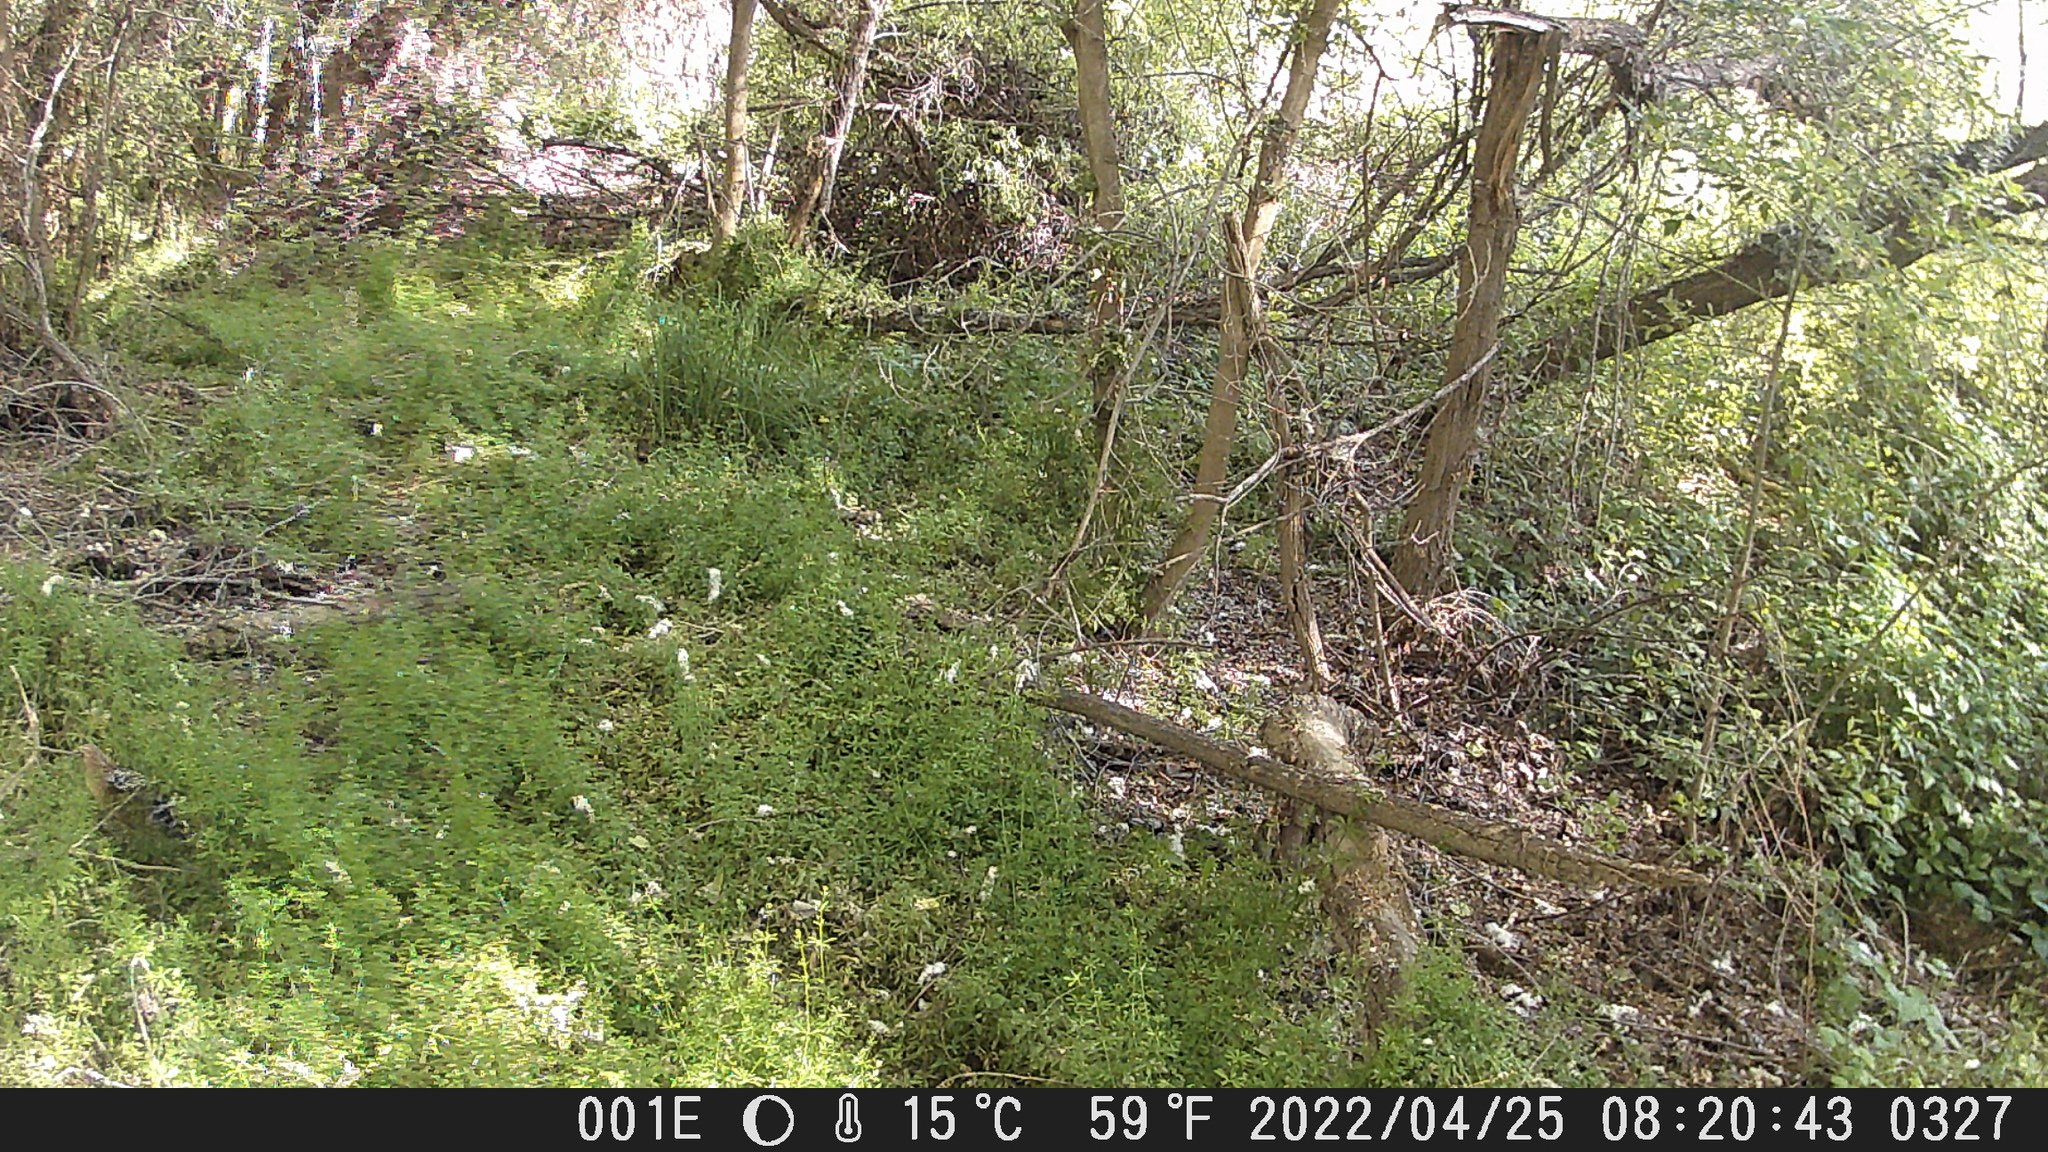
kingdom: Animalia
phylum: Chordata
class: Aves
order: Accipitriformes
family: Accipitridae
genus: Buteo
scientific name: Buteo lineatus
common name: Red-shouldered hawk
